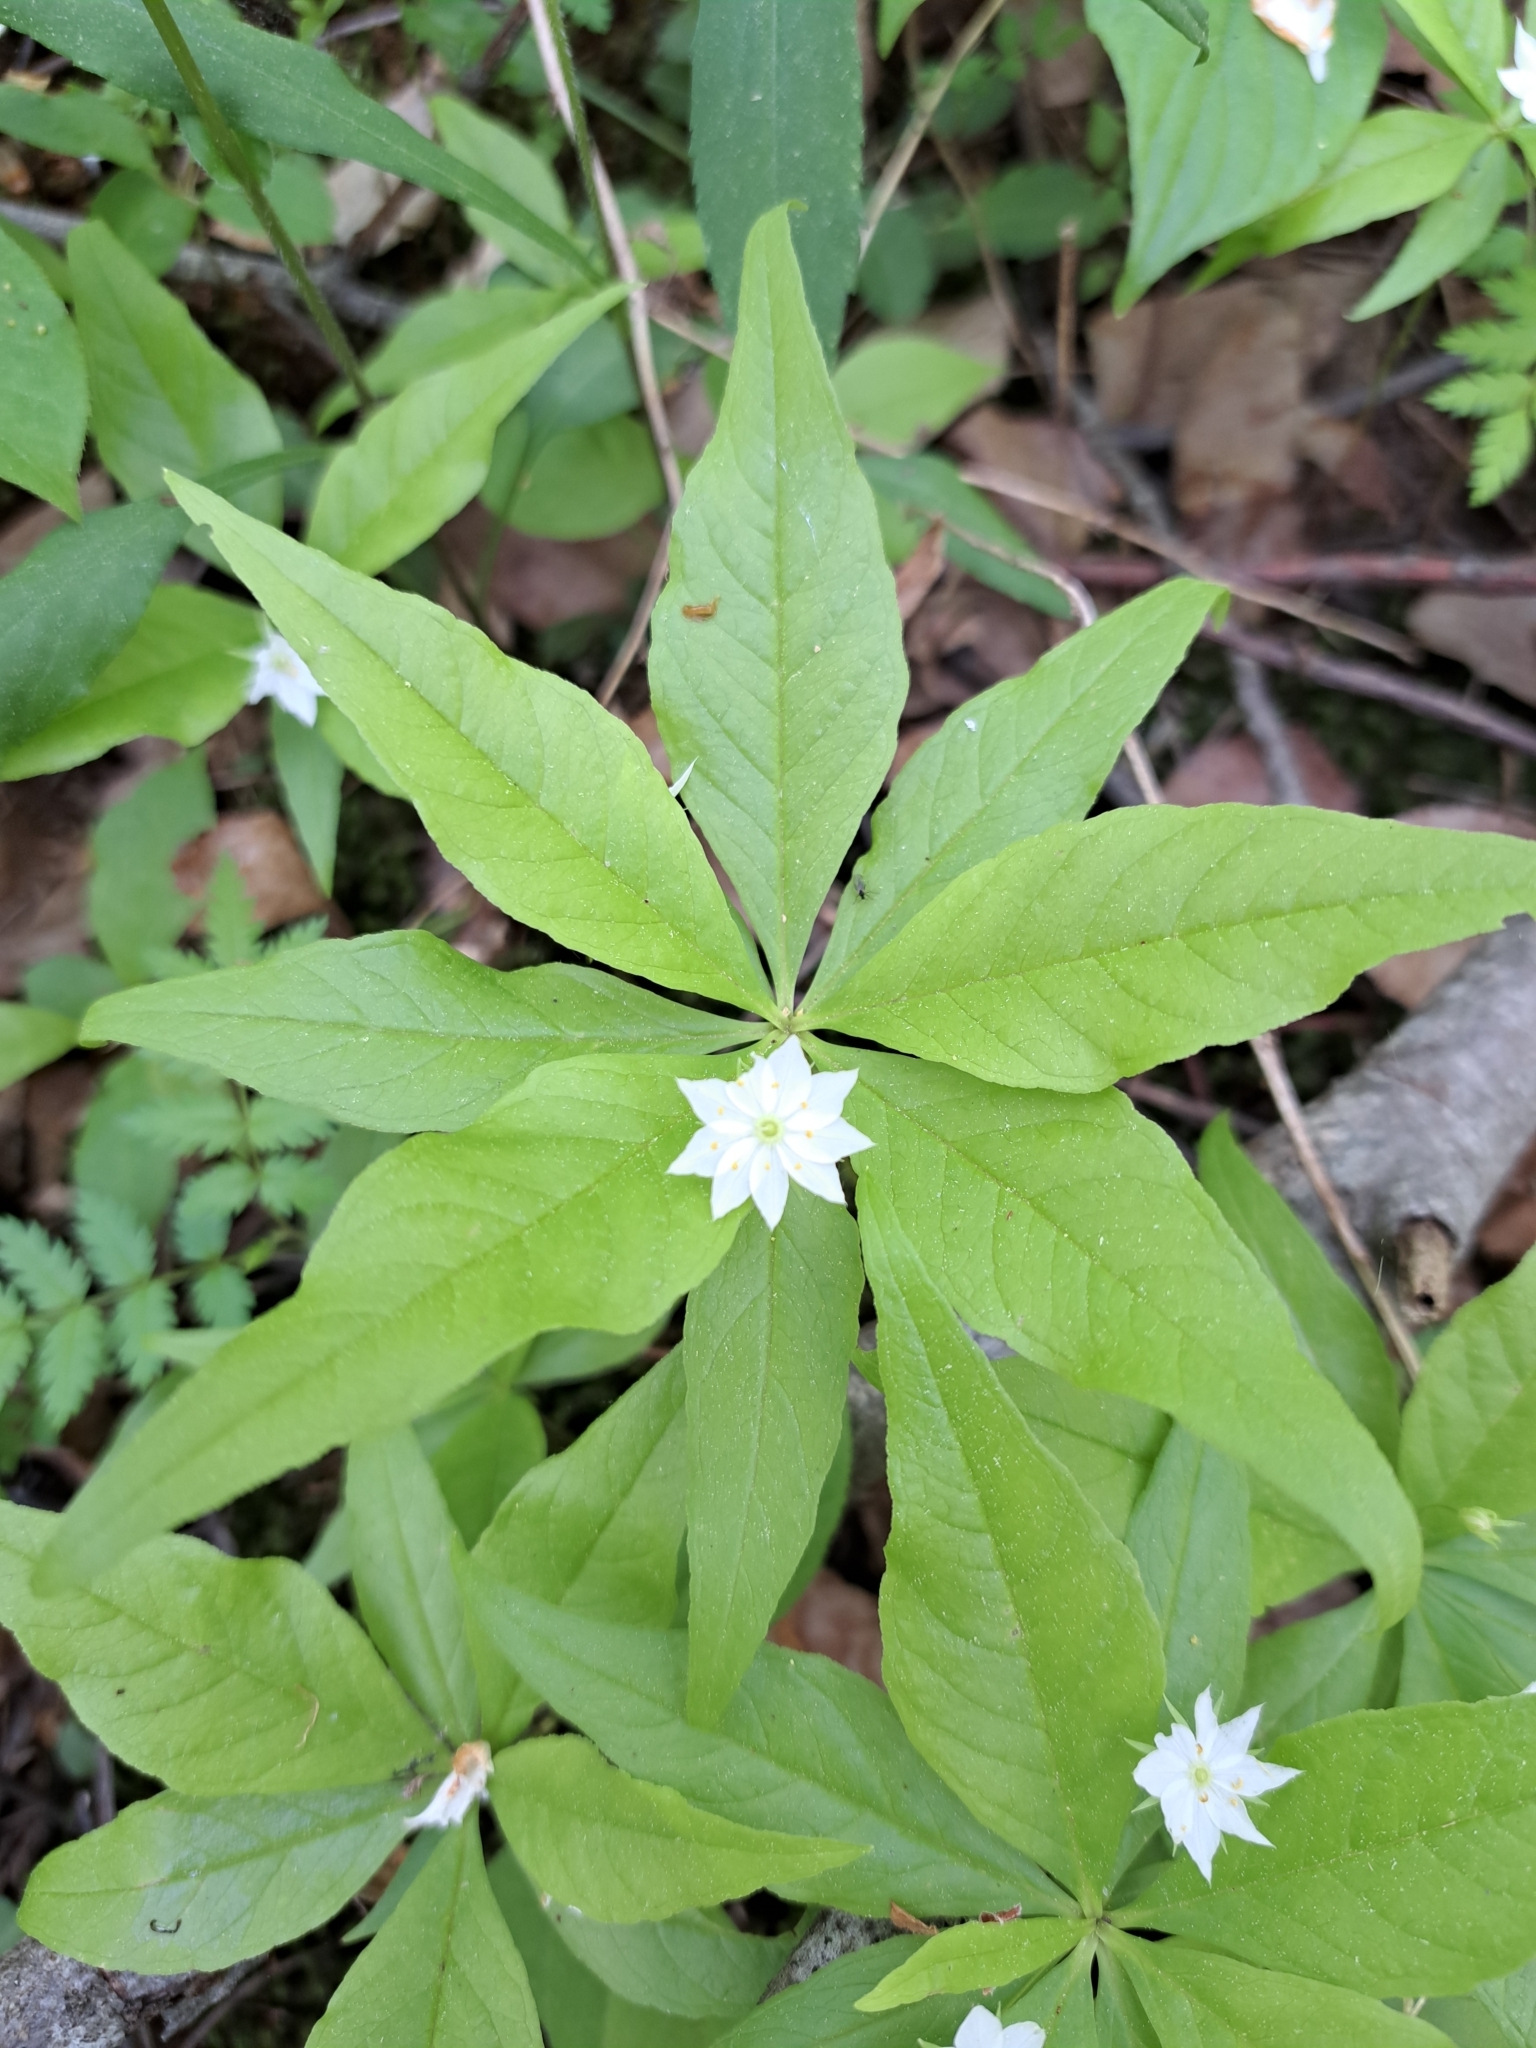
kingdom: Plantae
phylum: Tracheophyta
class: Magnoliopsida
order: Ericales
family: Primulaceae
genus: Lysimachia
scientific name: Lysimachia borealis
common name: American starflower
